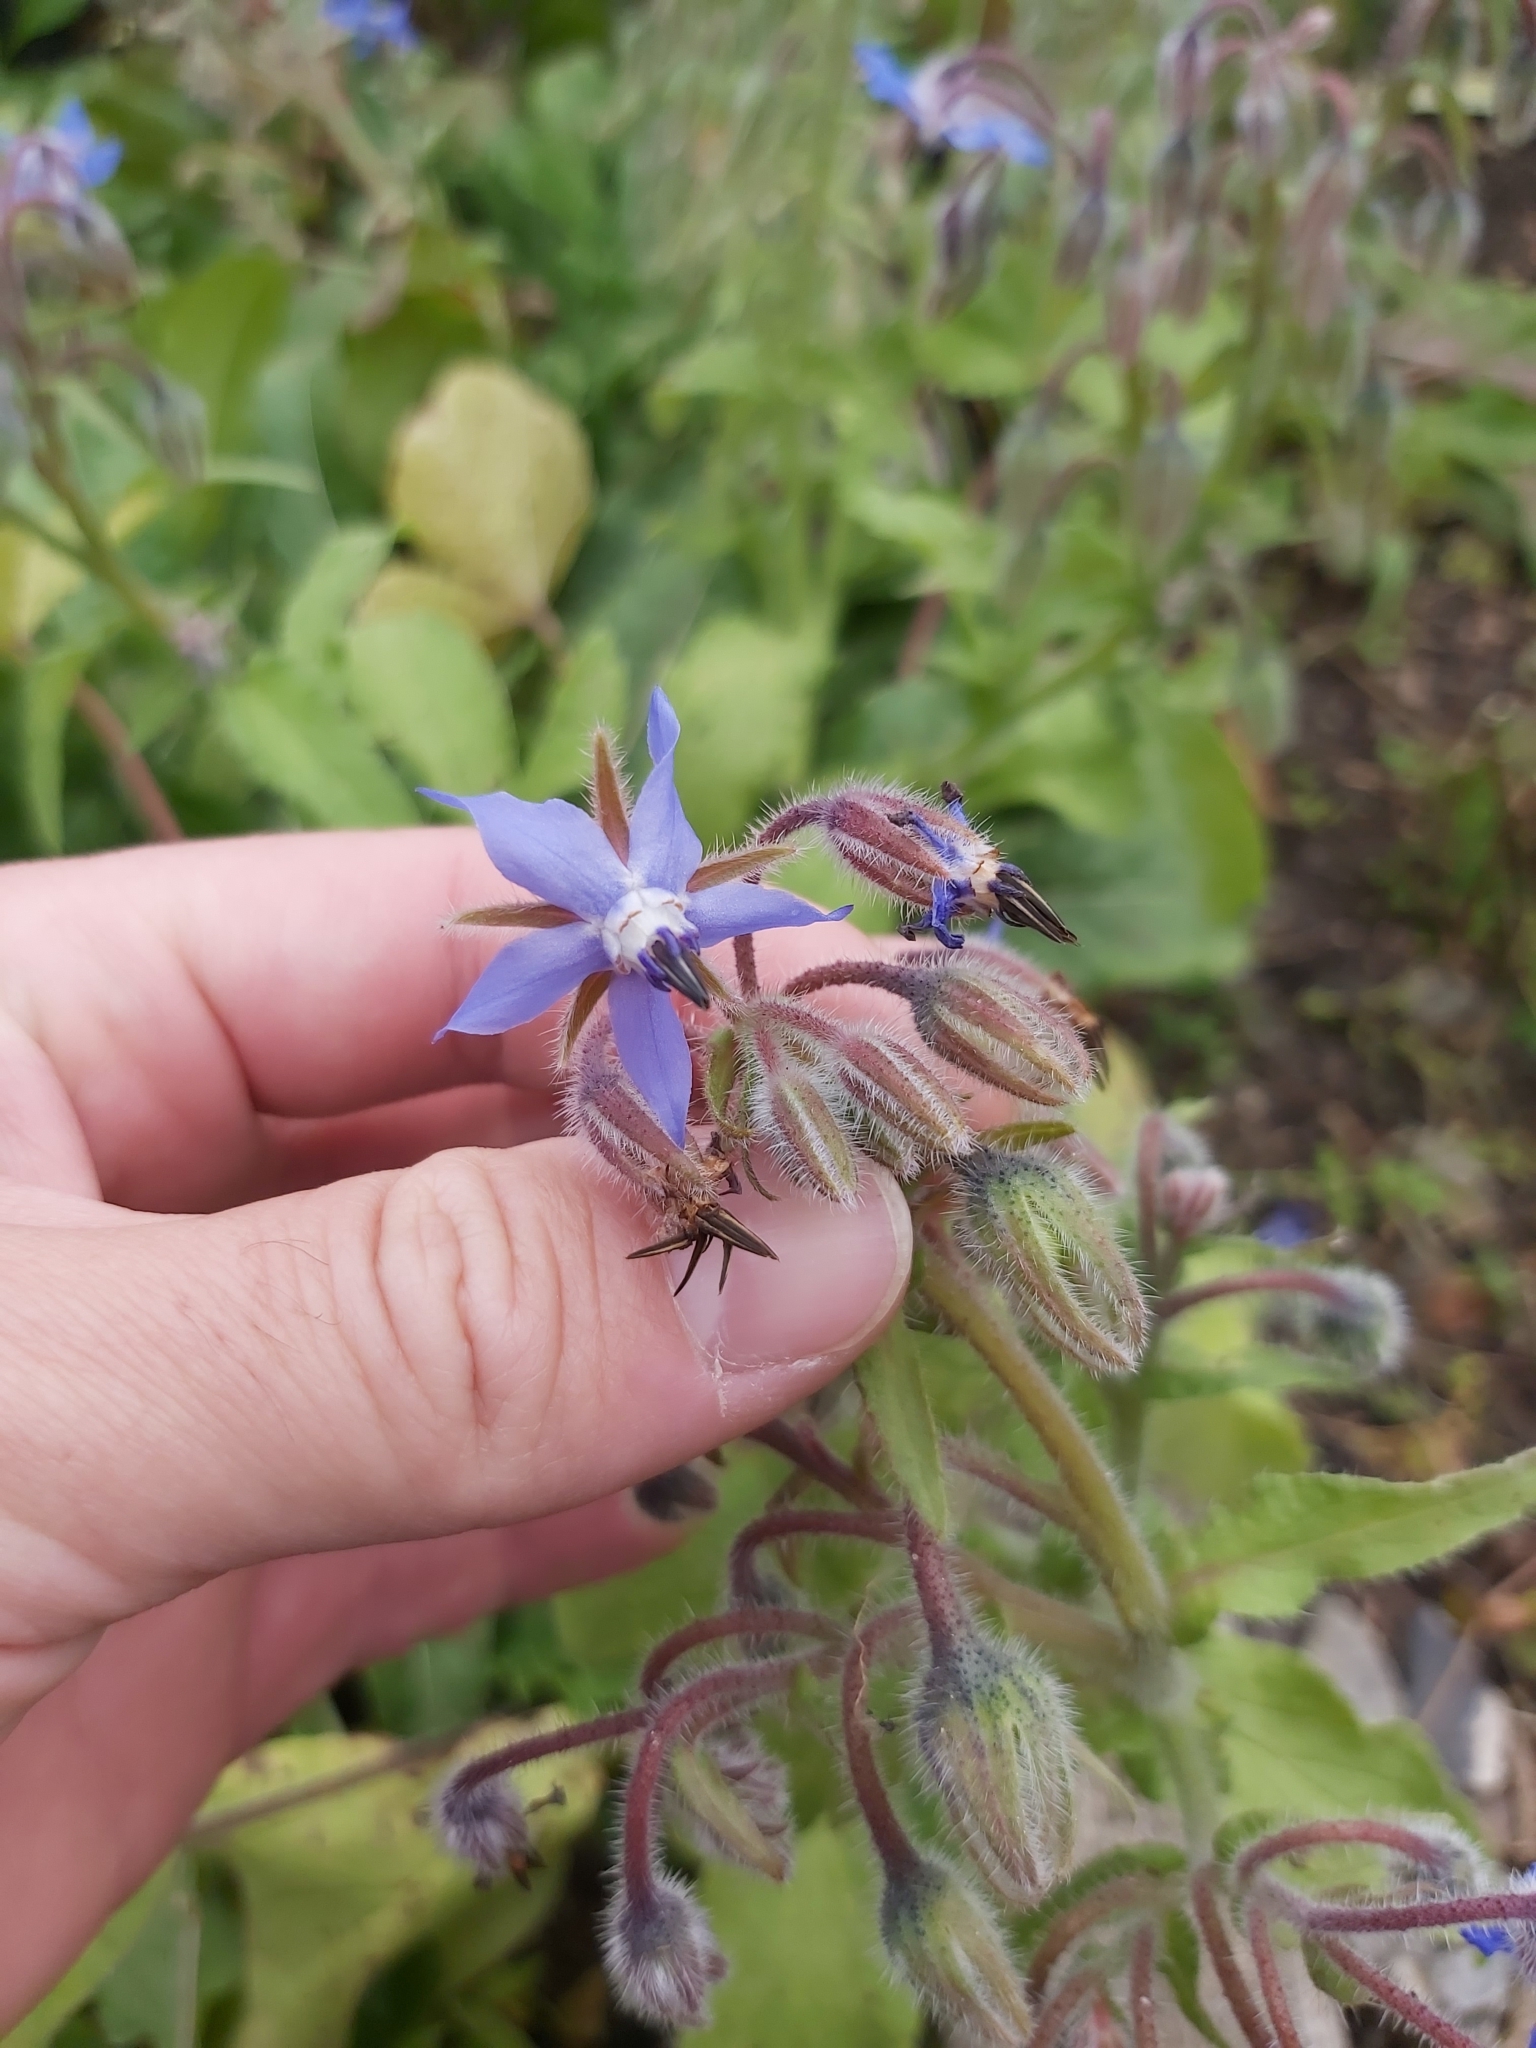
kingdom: Plantae
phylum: Tracheophyta
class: Magnoliopsida
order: Boraginales
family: Boraginaceae
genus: Borago
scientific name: Borago officinalis
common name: Borage
